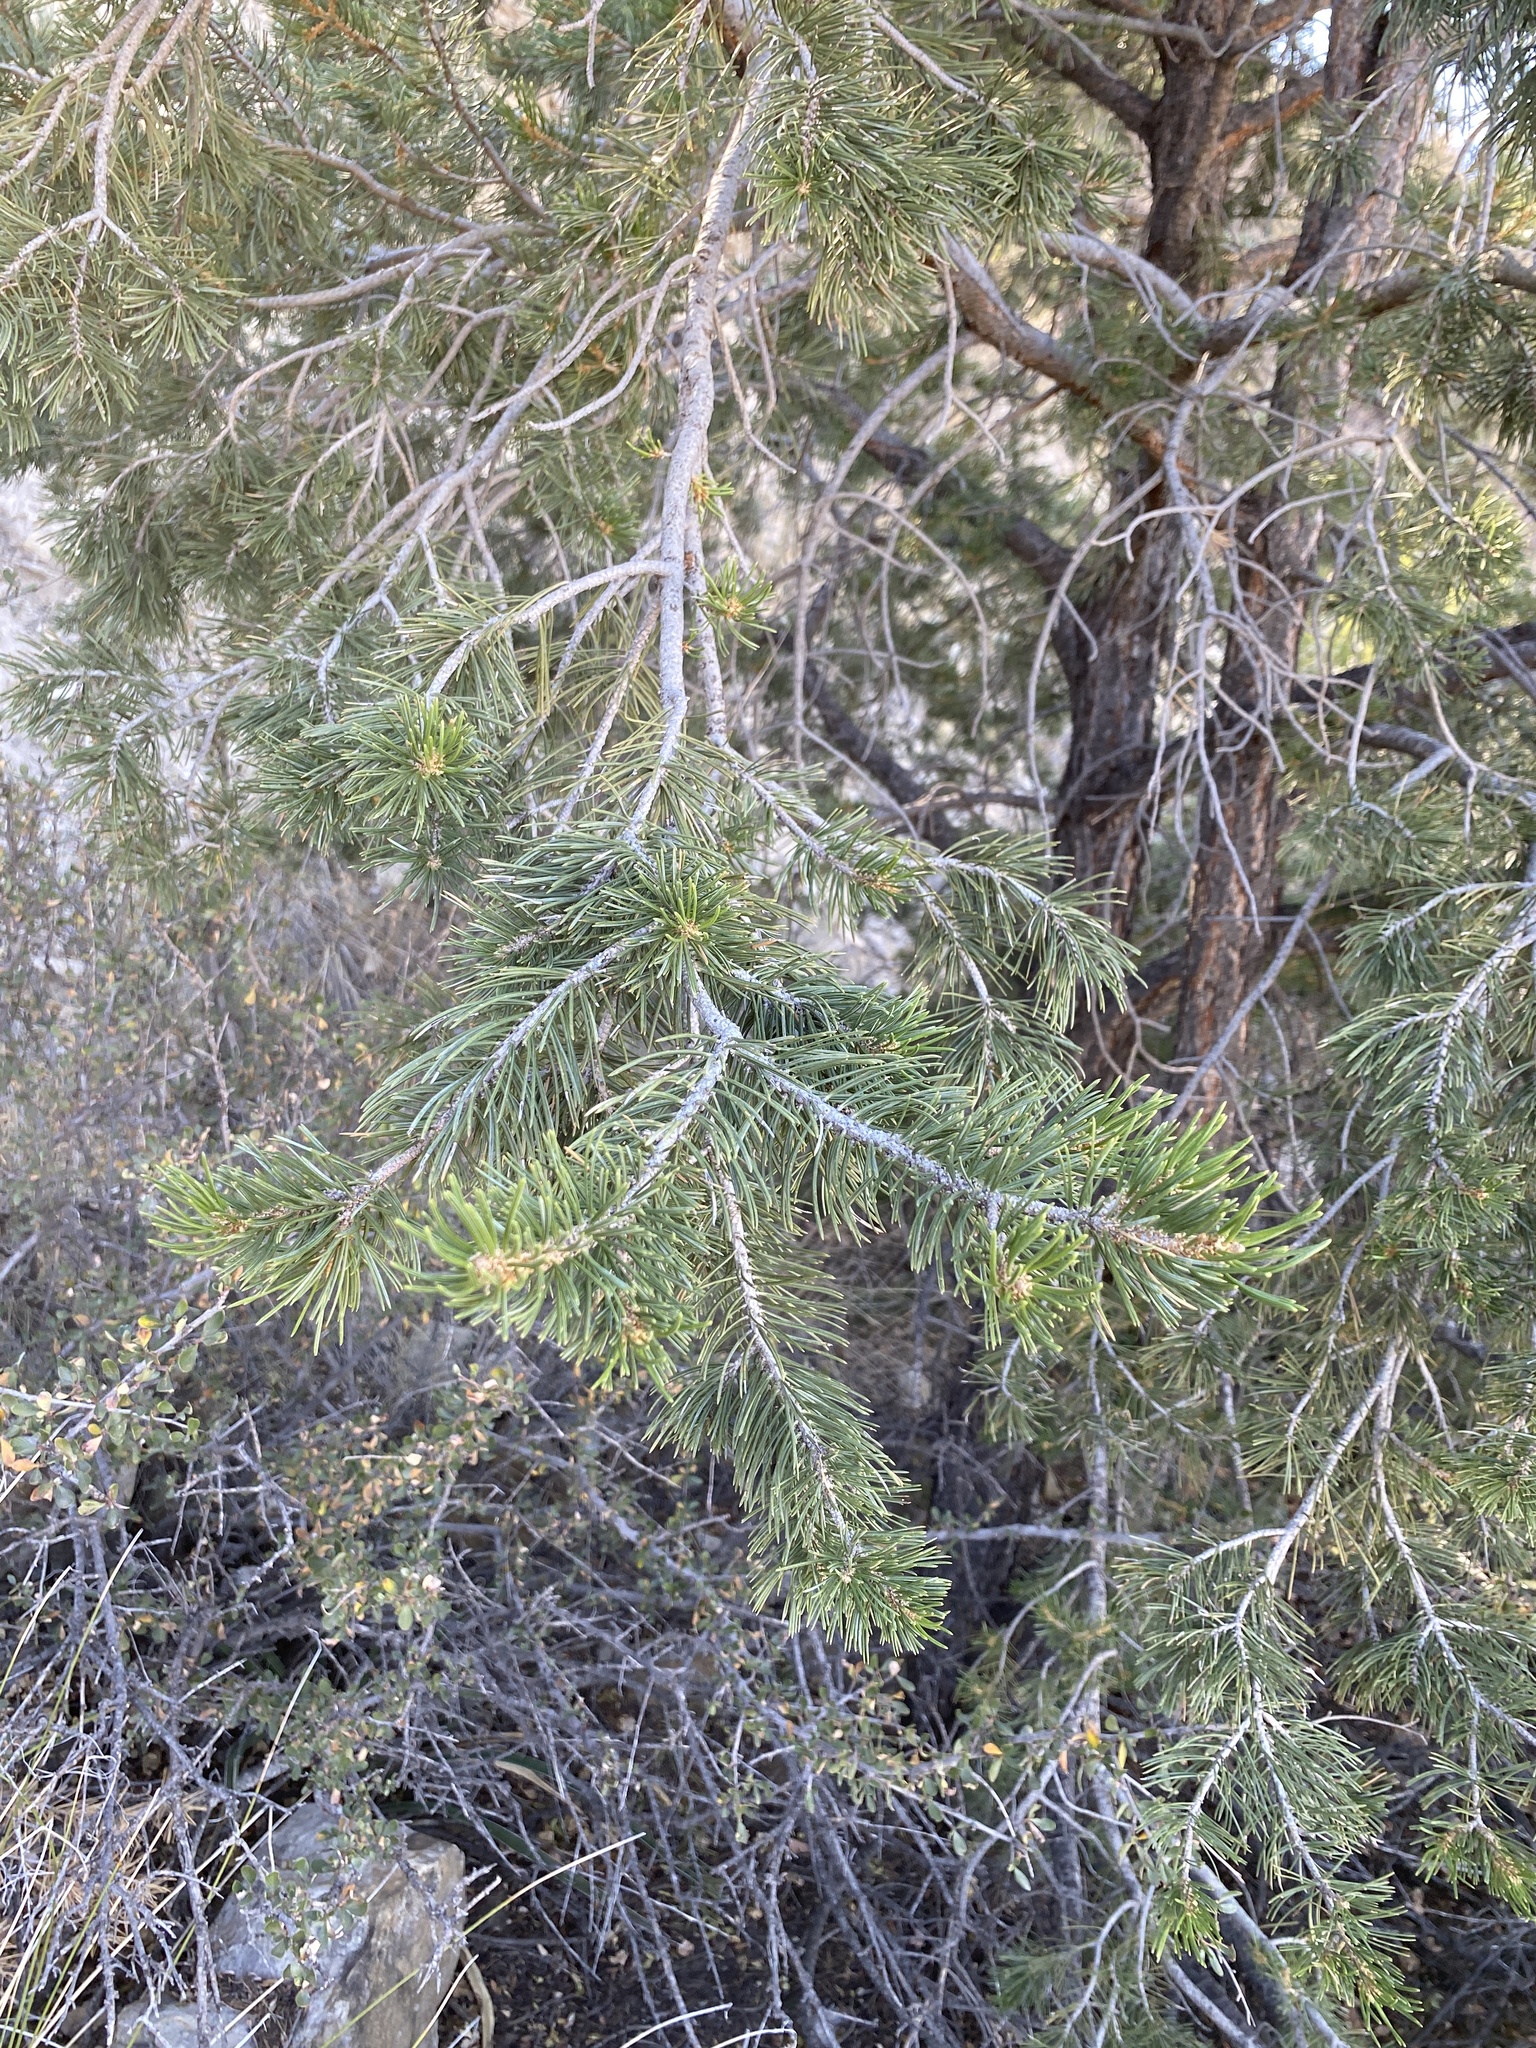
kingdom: Plantae
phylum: Tracheophyta
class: Pinopsida
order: Pinales
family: Pinaceae
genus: Pinus
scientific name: Pinus edulis
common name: Colorado pinyon
